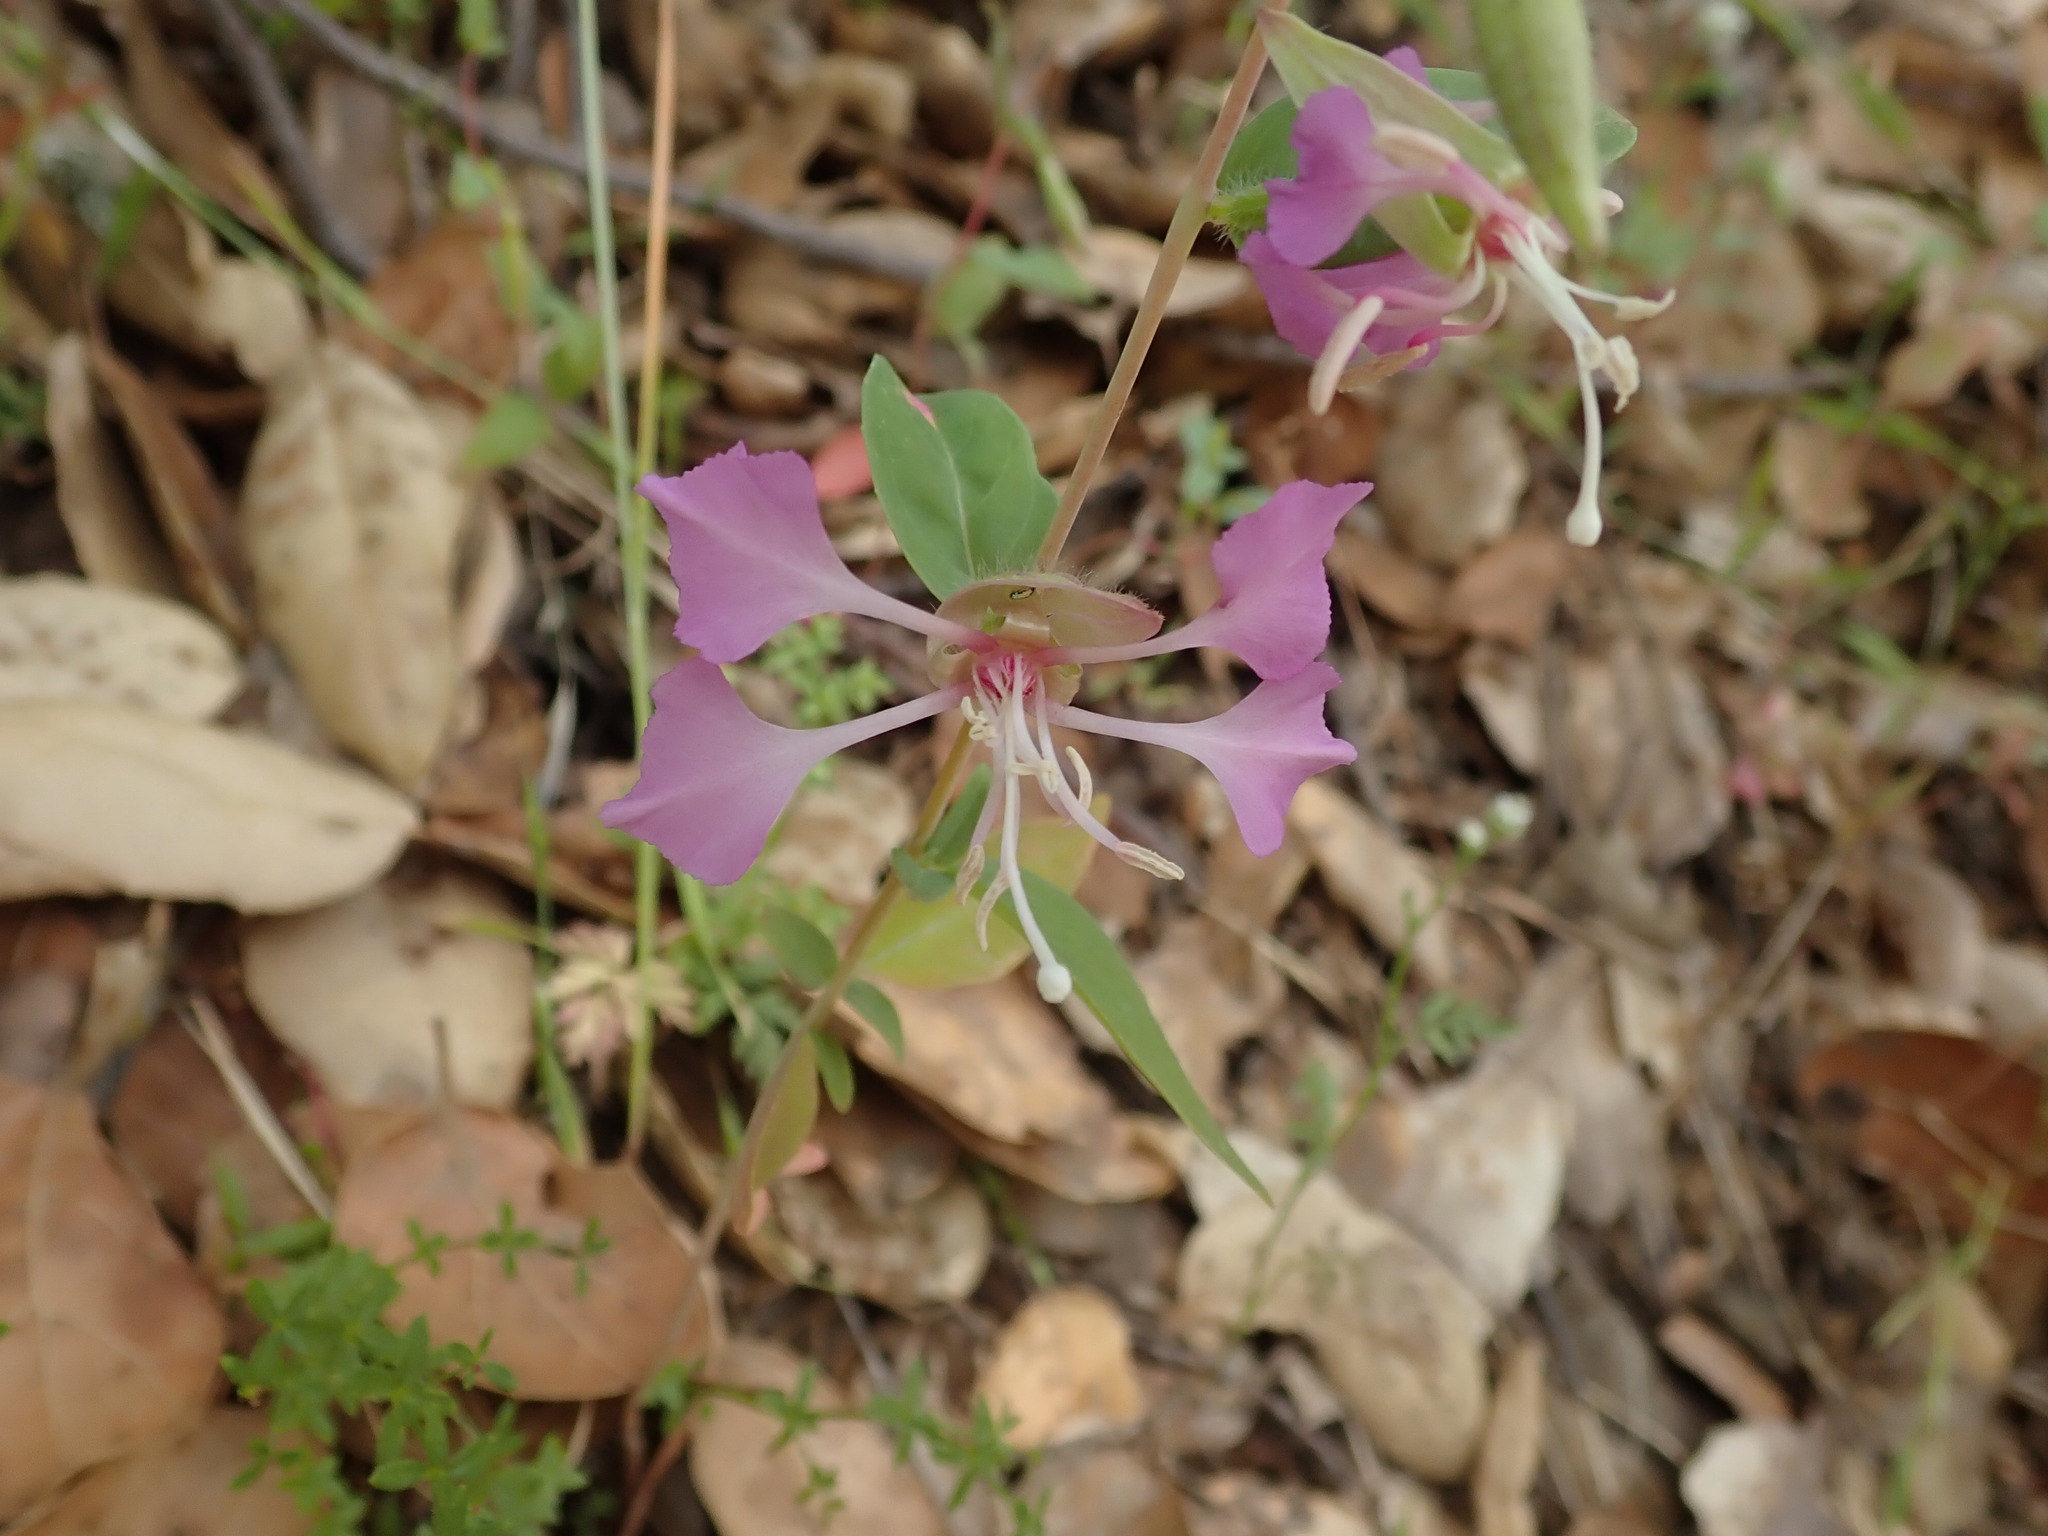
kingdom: Plantae
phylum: Tracheophyta
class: Magnoliopsida
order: Myrtales
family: Onagraceae
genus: Clarkia
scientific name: Clarkia unguiculata
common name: Clarkia
